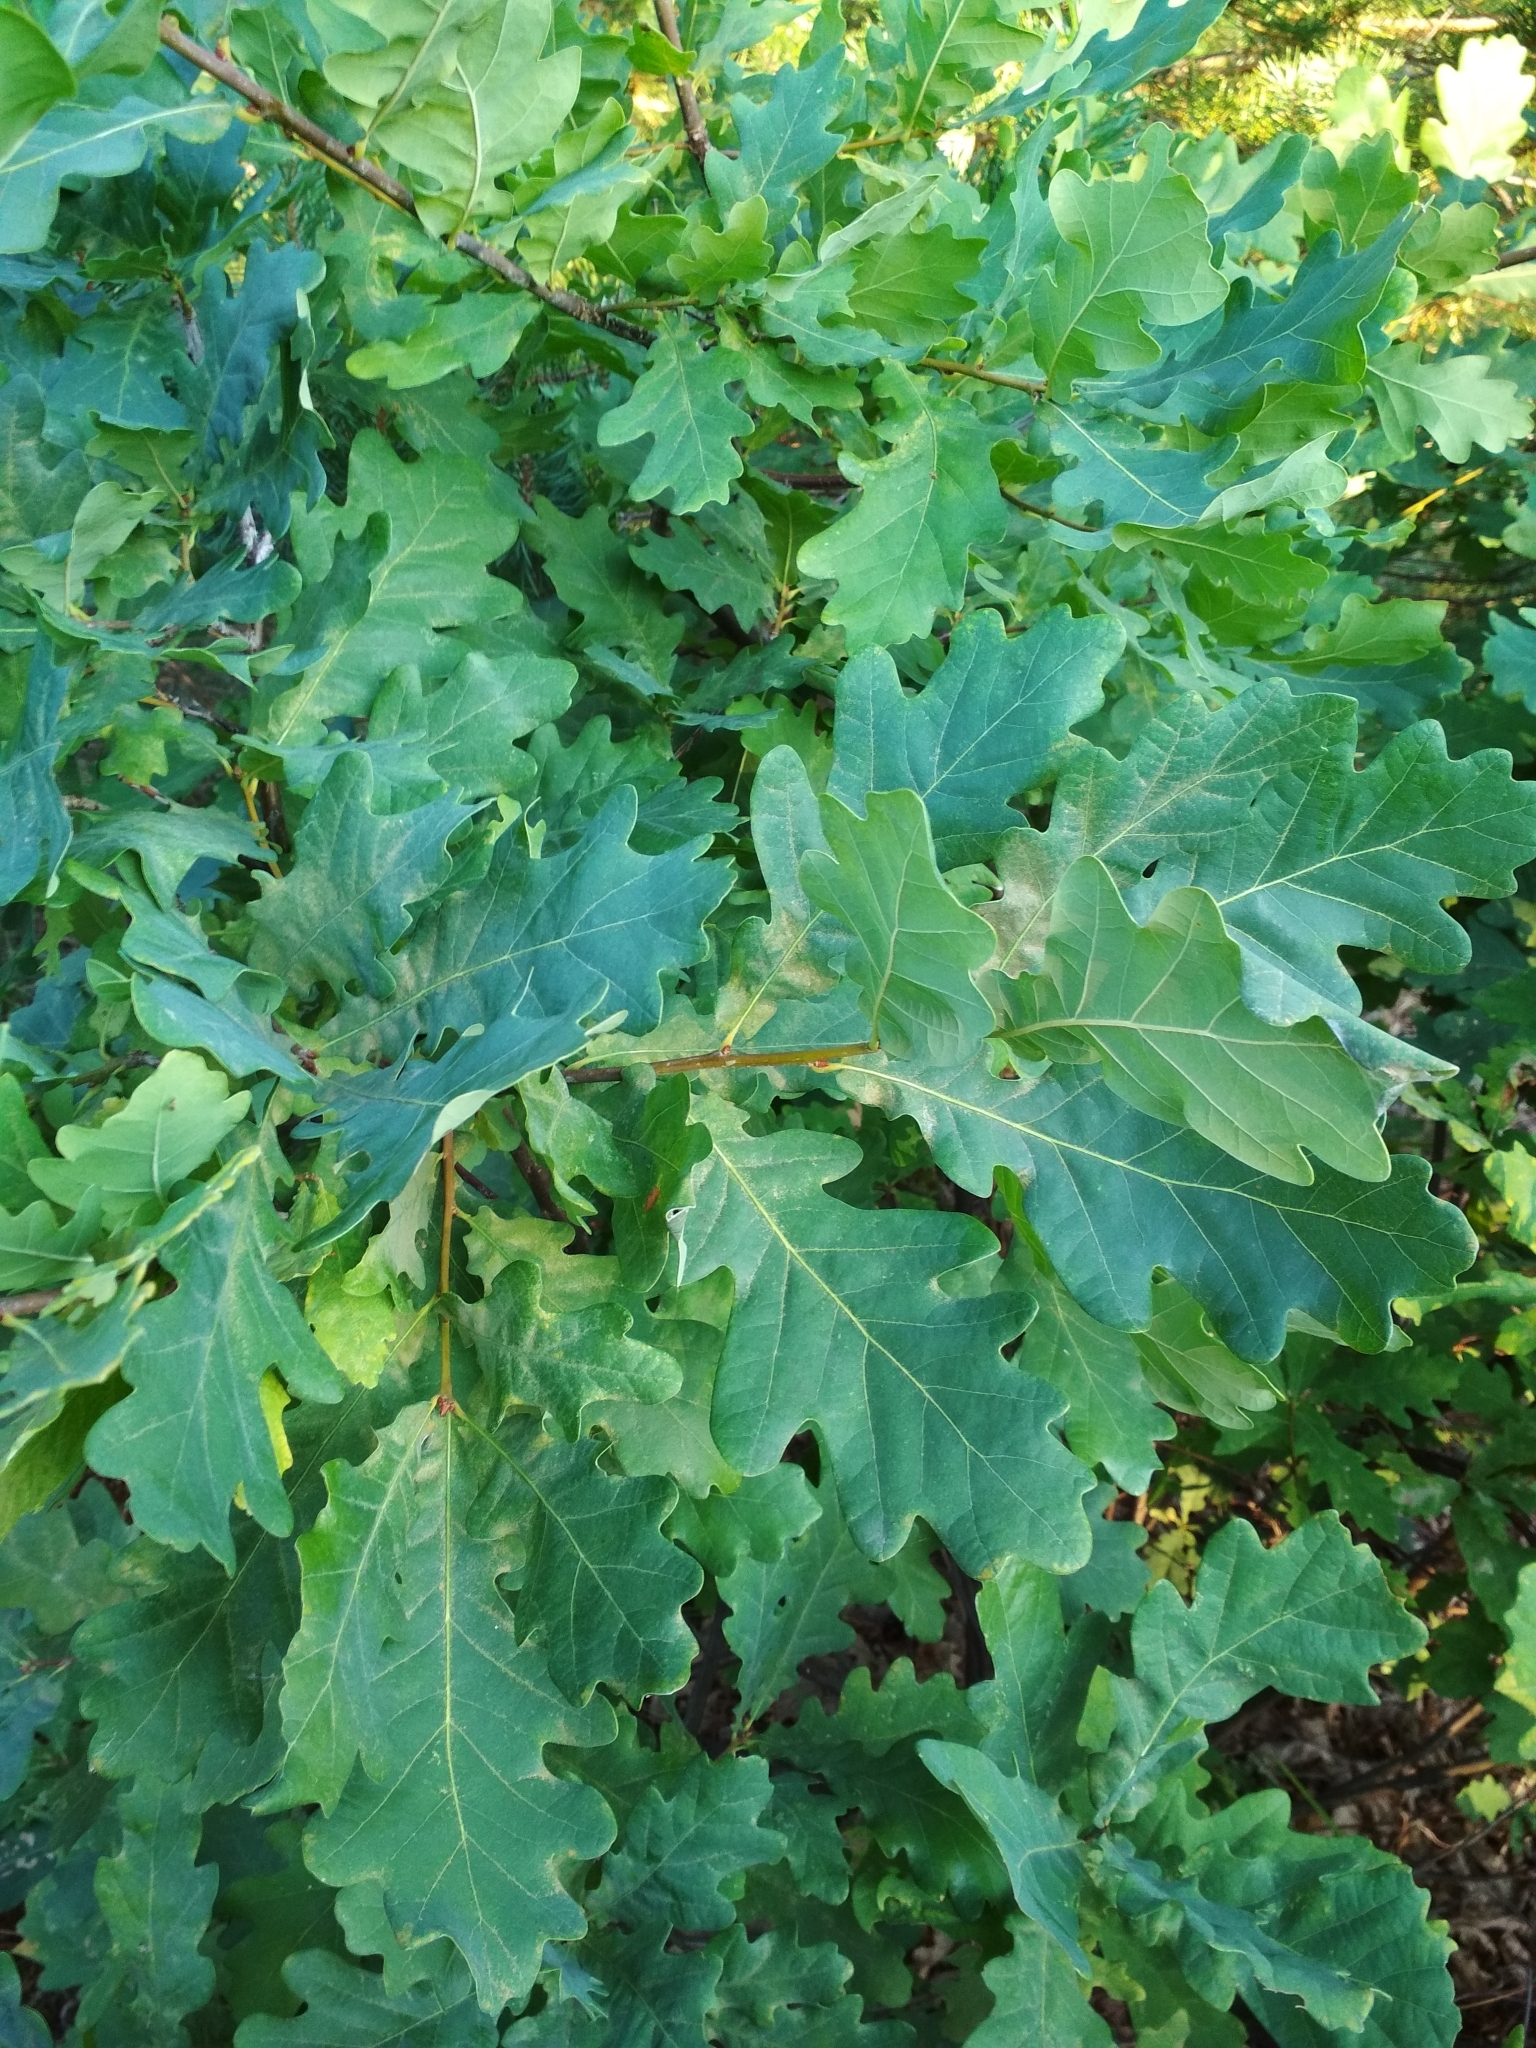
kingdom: Plantae
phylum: Tracheophyta
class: Magnoliopsida
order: Fagales
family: Fagaceae
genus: Quercus
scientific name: Quercus robur
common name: Pedunculate oak
